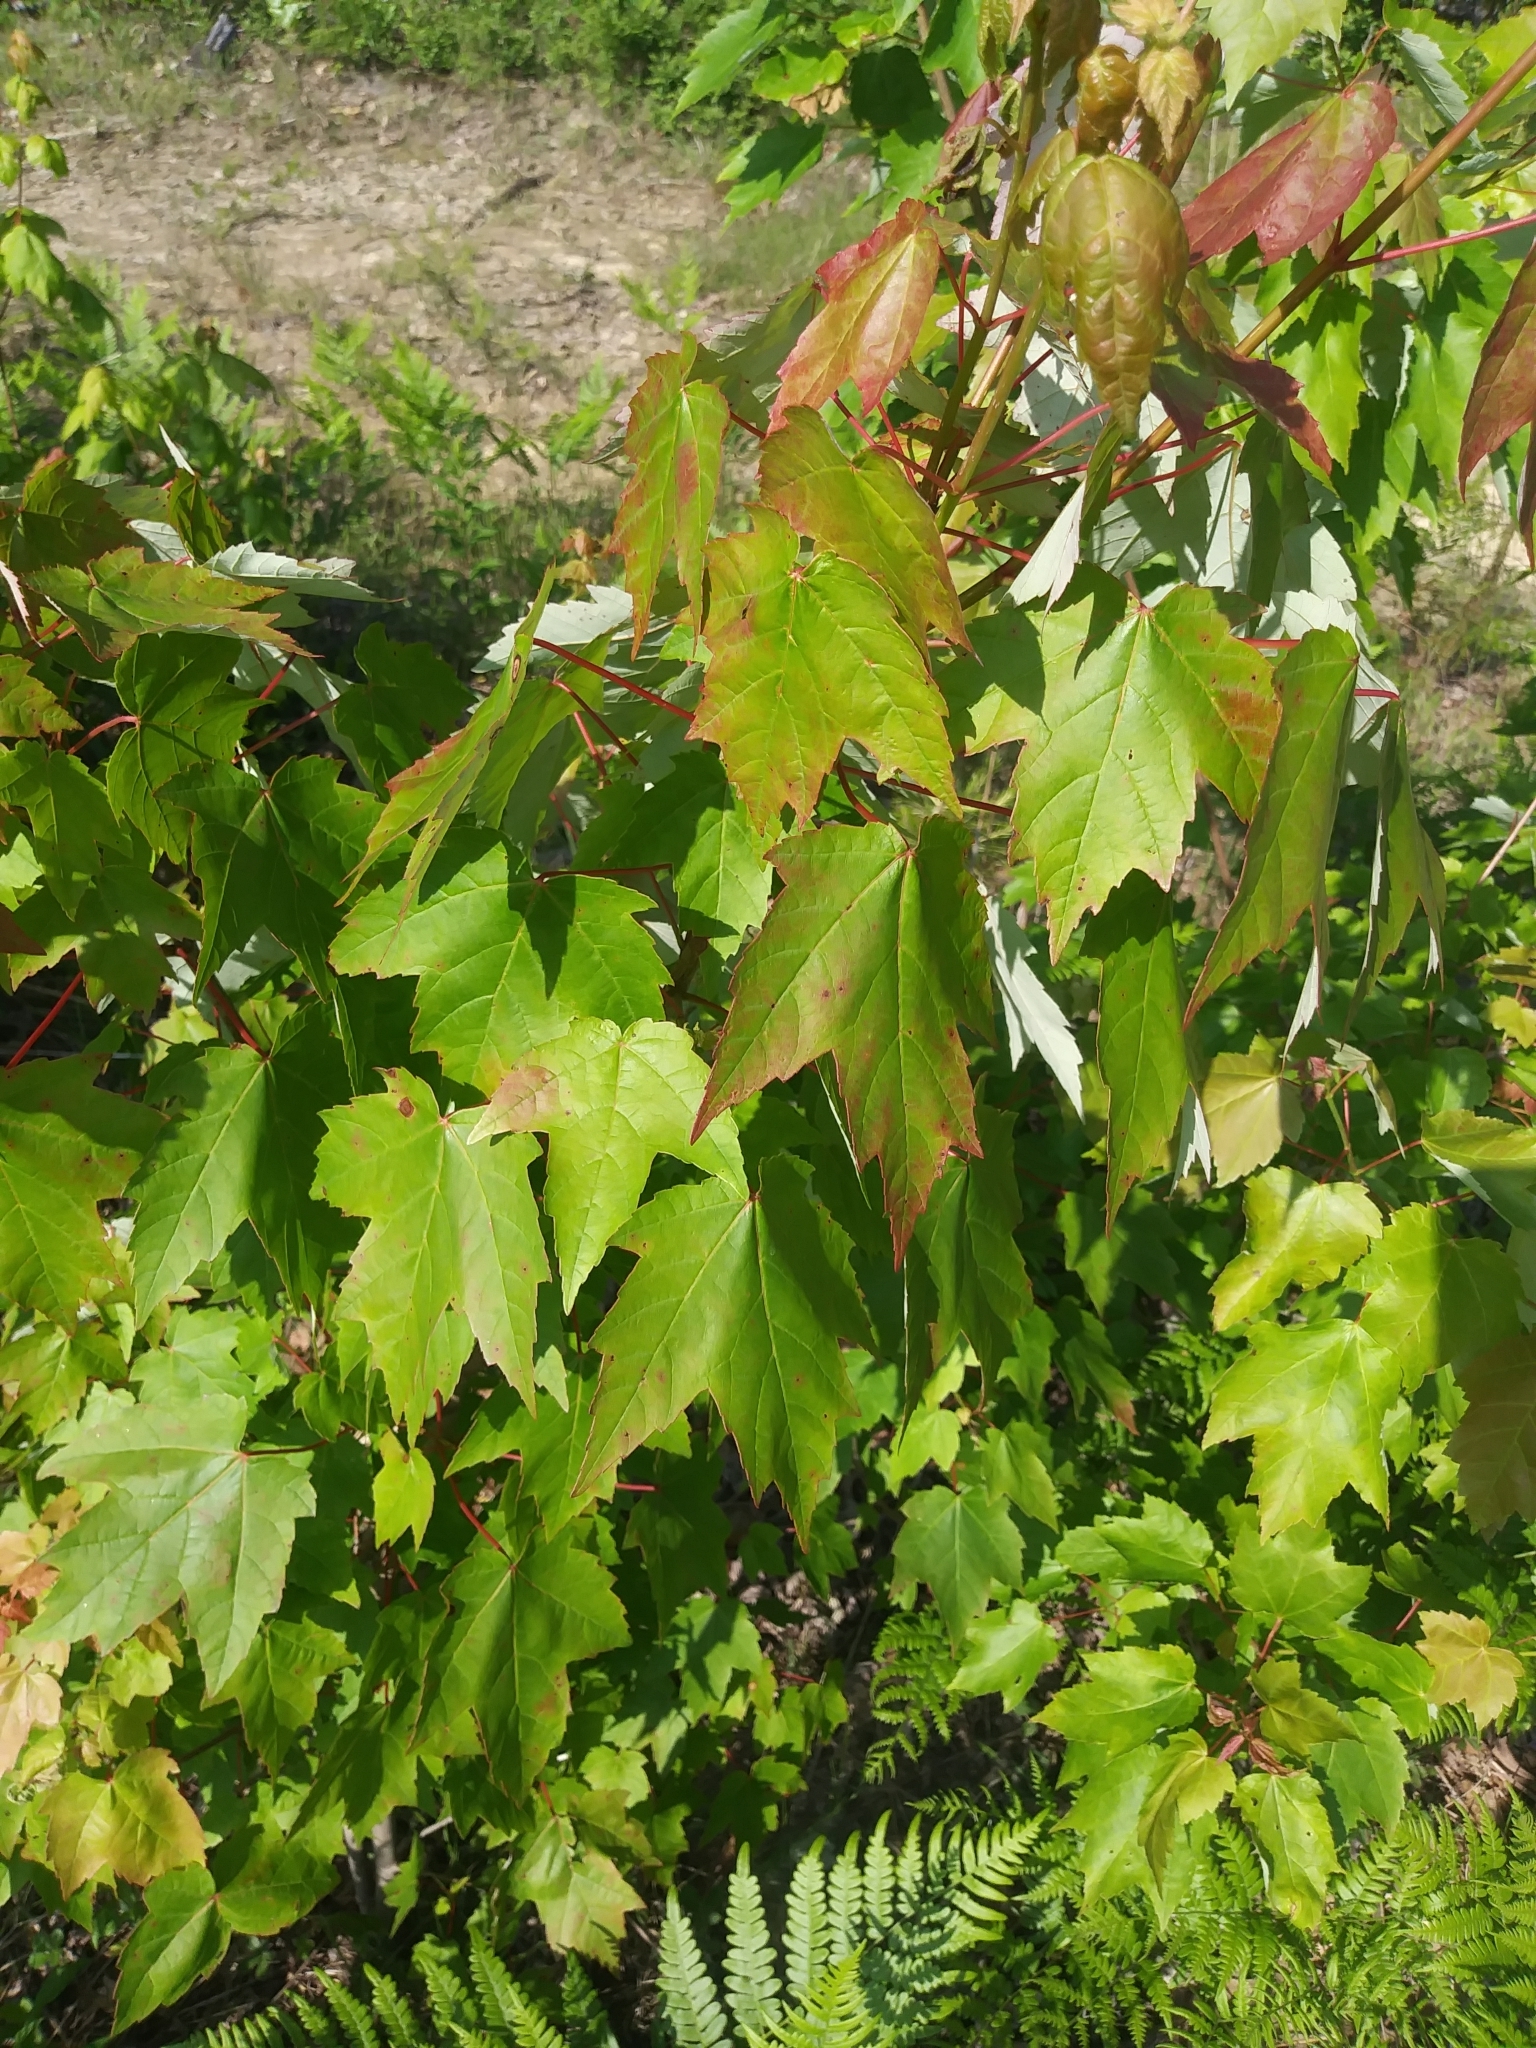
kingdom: Plantae
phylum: Tracheophyta
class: Magnoliopsida
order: Sapindales
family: Sapindaceae
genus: Acer
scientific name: Acer rubrum
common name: Red maple
